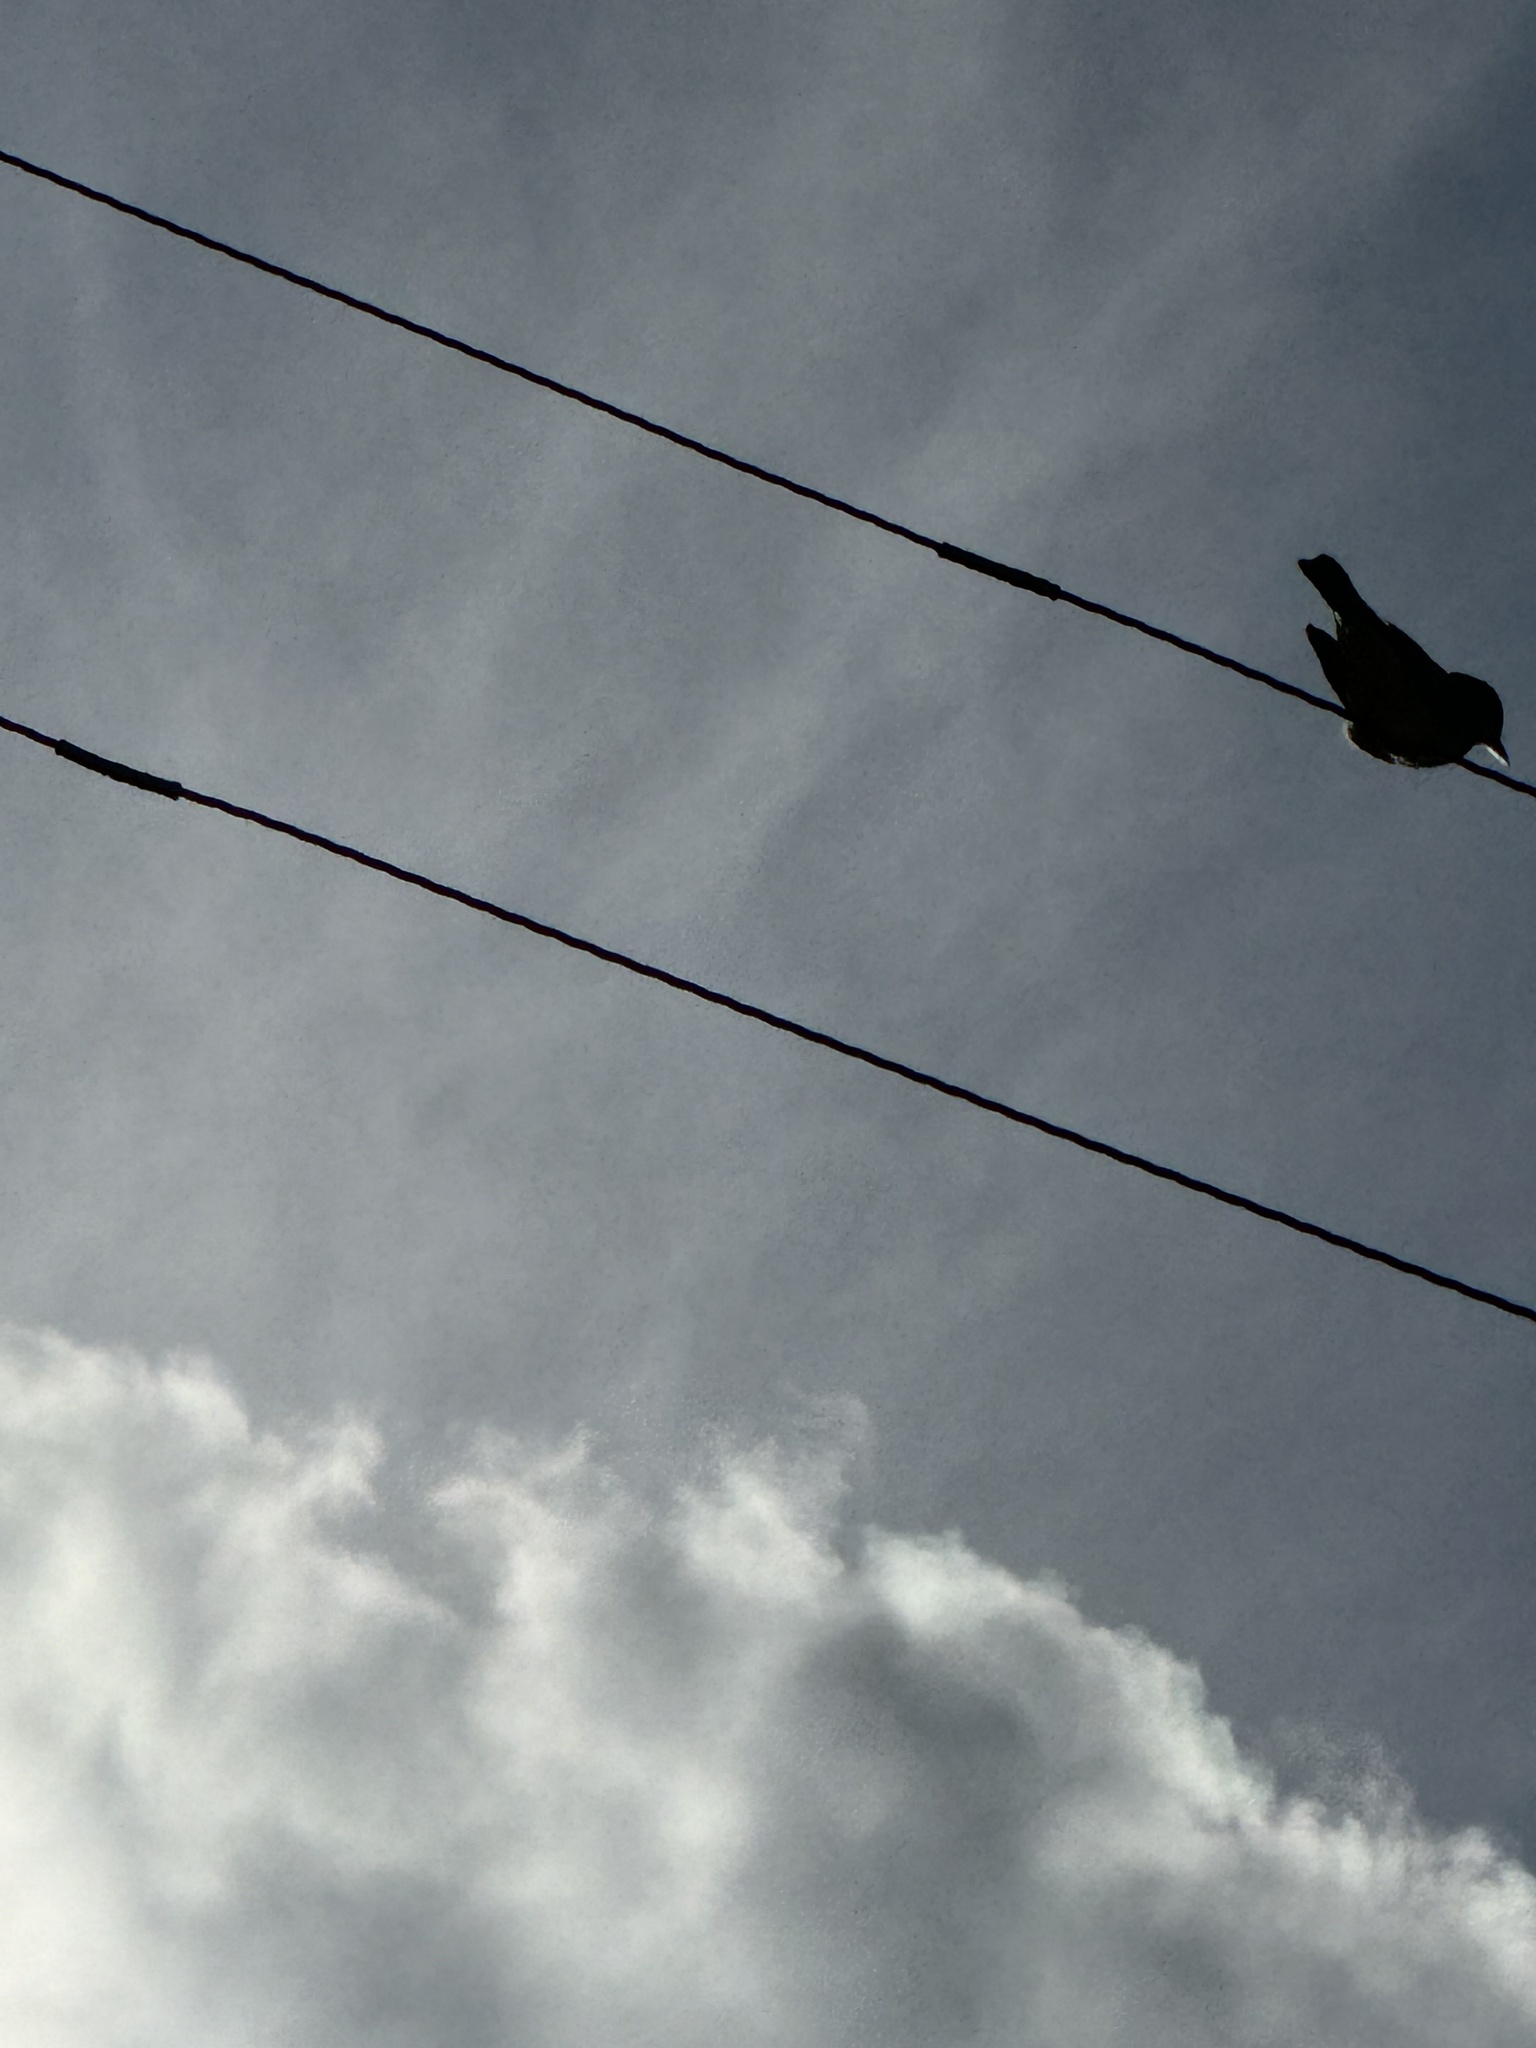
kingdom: Animalia
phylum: Chordata
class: Aves
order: Passeriformes
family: Tyrannidae
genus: Tyrannus
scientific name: Tyrannus vociferans
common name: Cassin's kingbird
